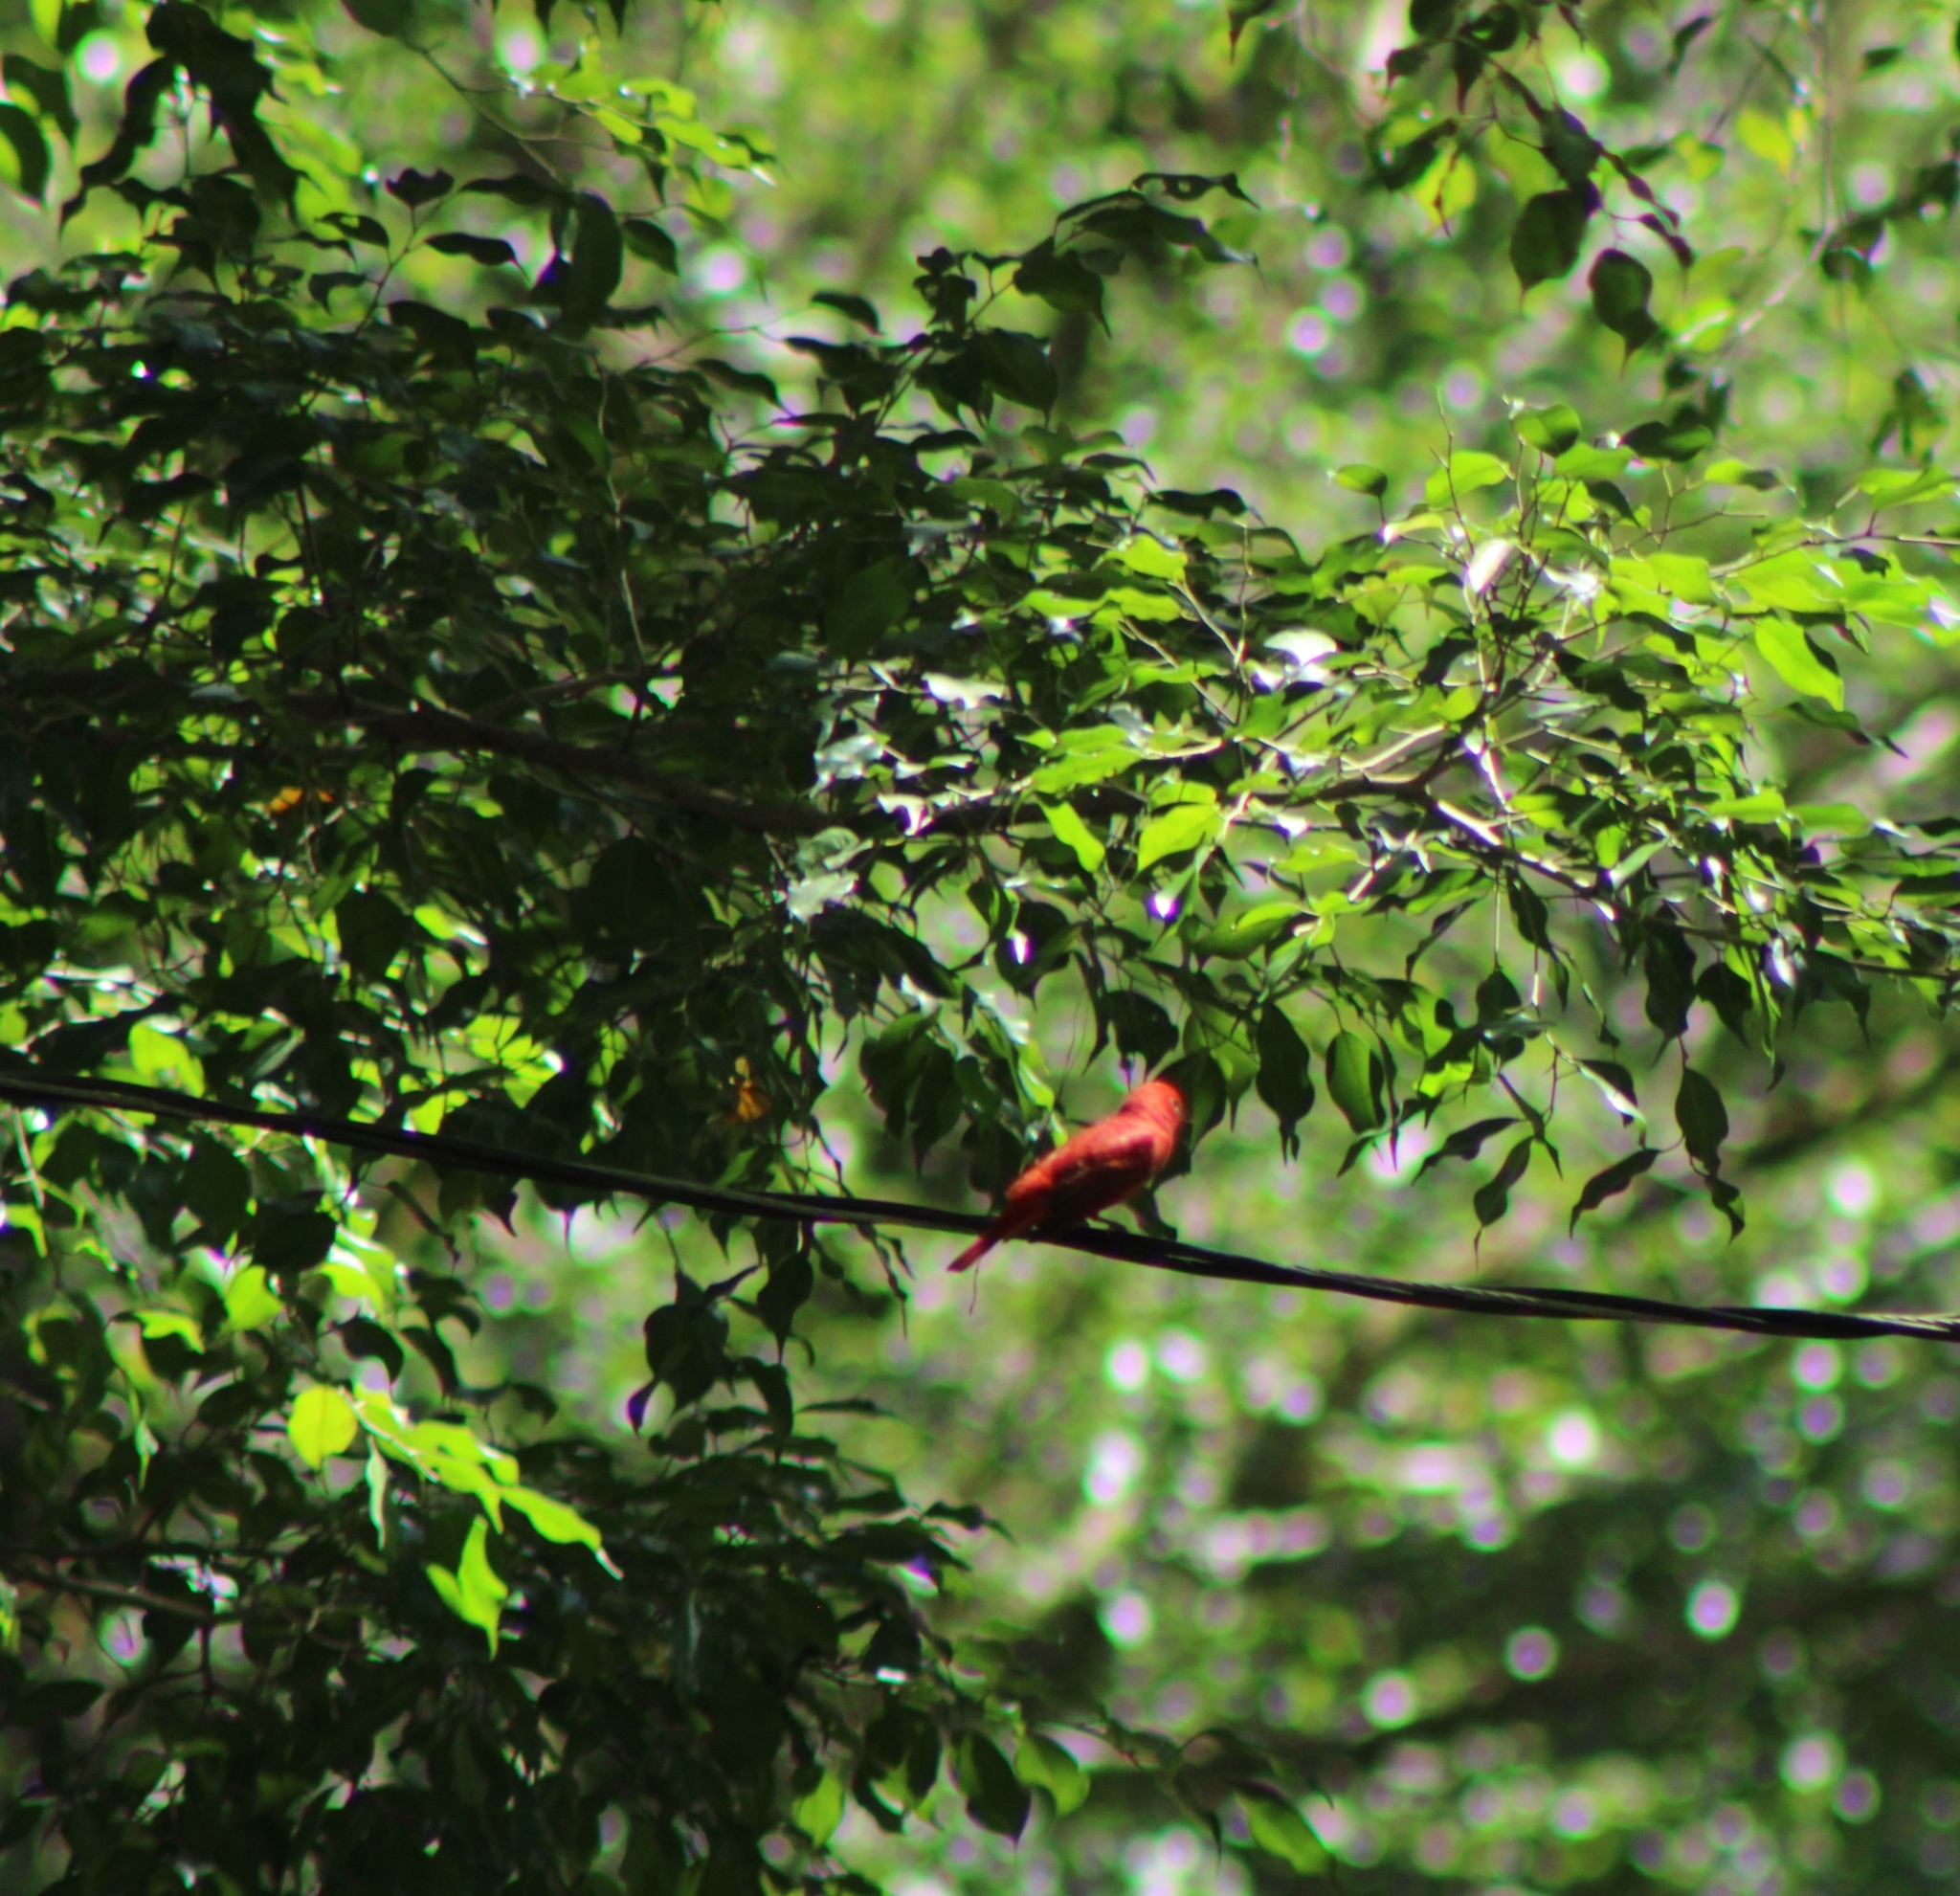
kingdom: Animalia
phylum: Chordata
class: Aves
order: Passeriformes
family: Cardinalidae
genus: Piranga
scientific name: Piranga rubra
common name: Summer tanager
